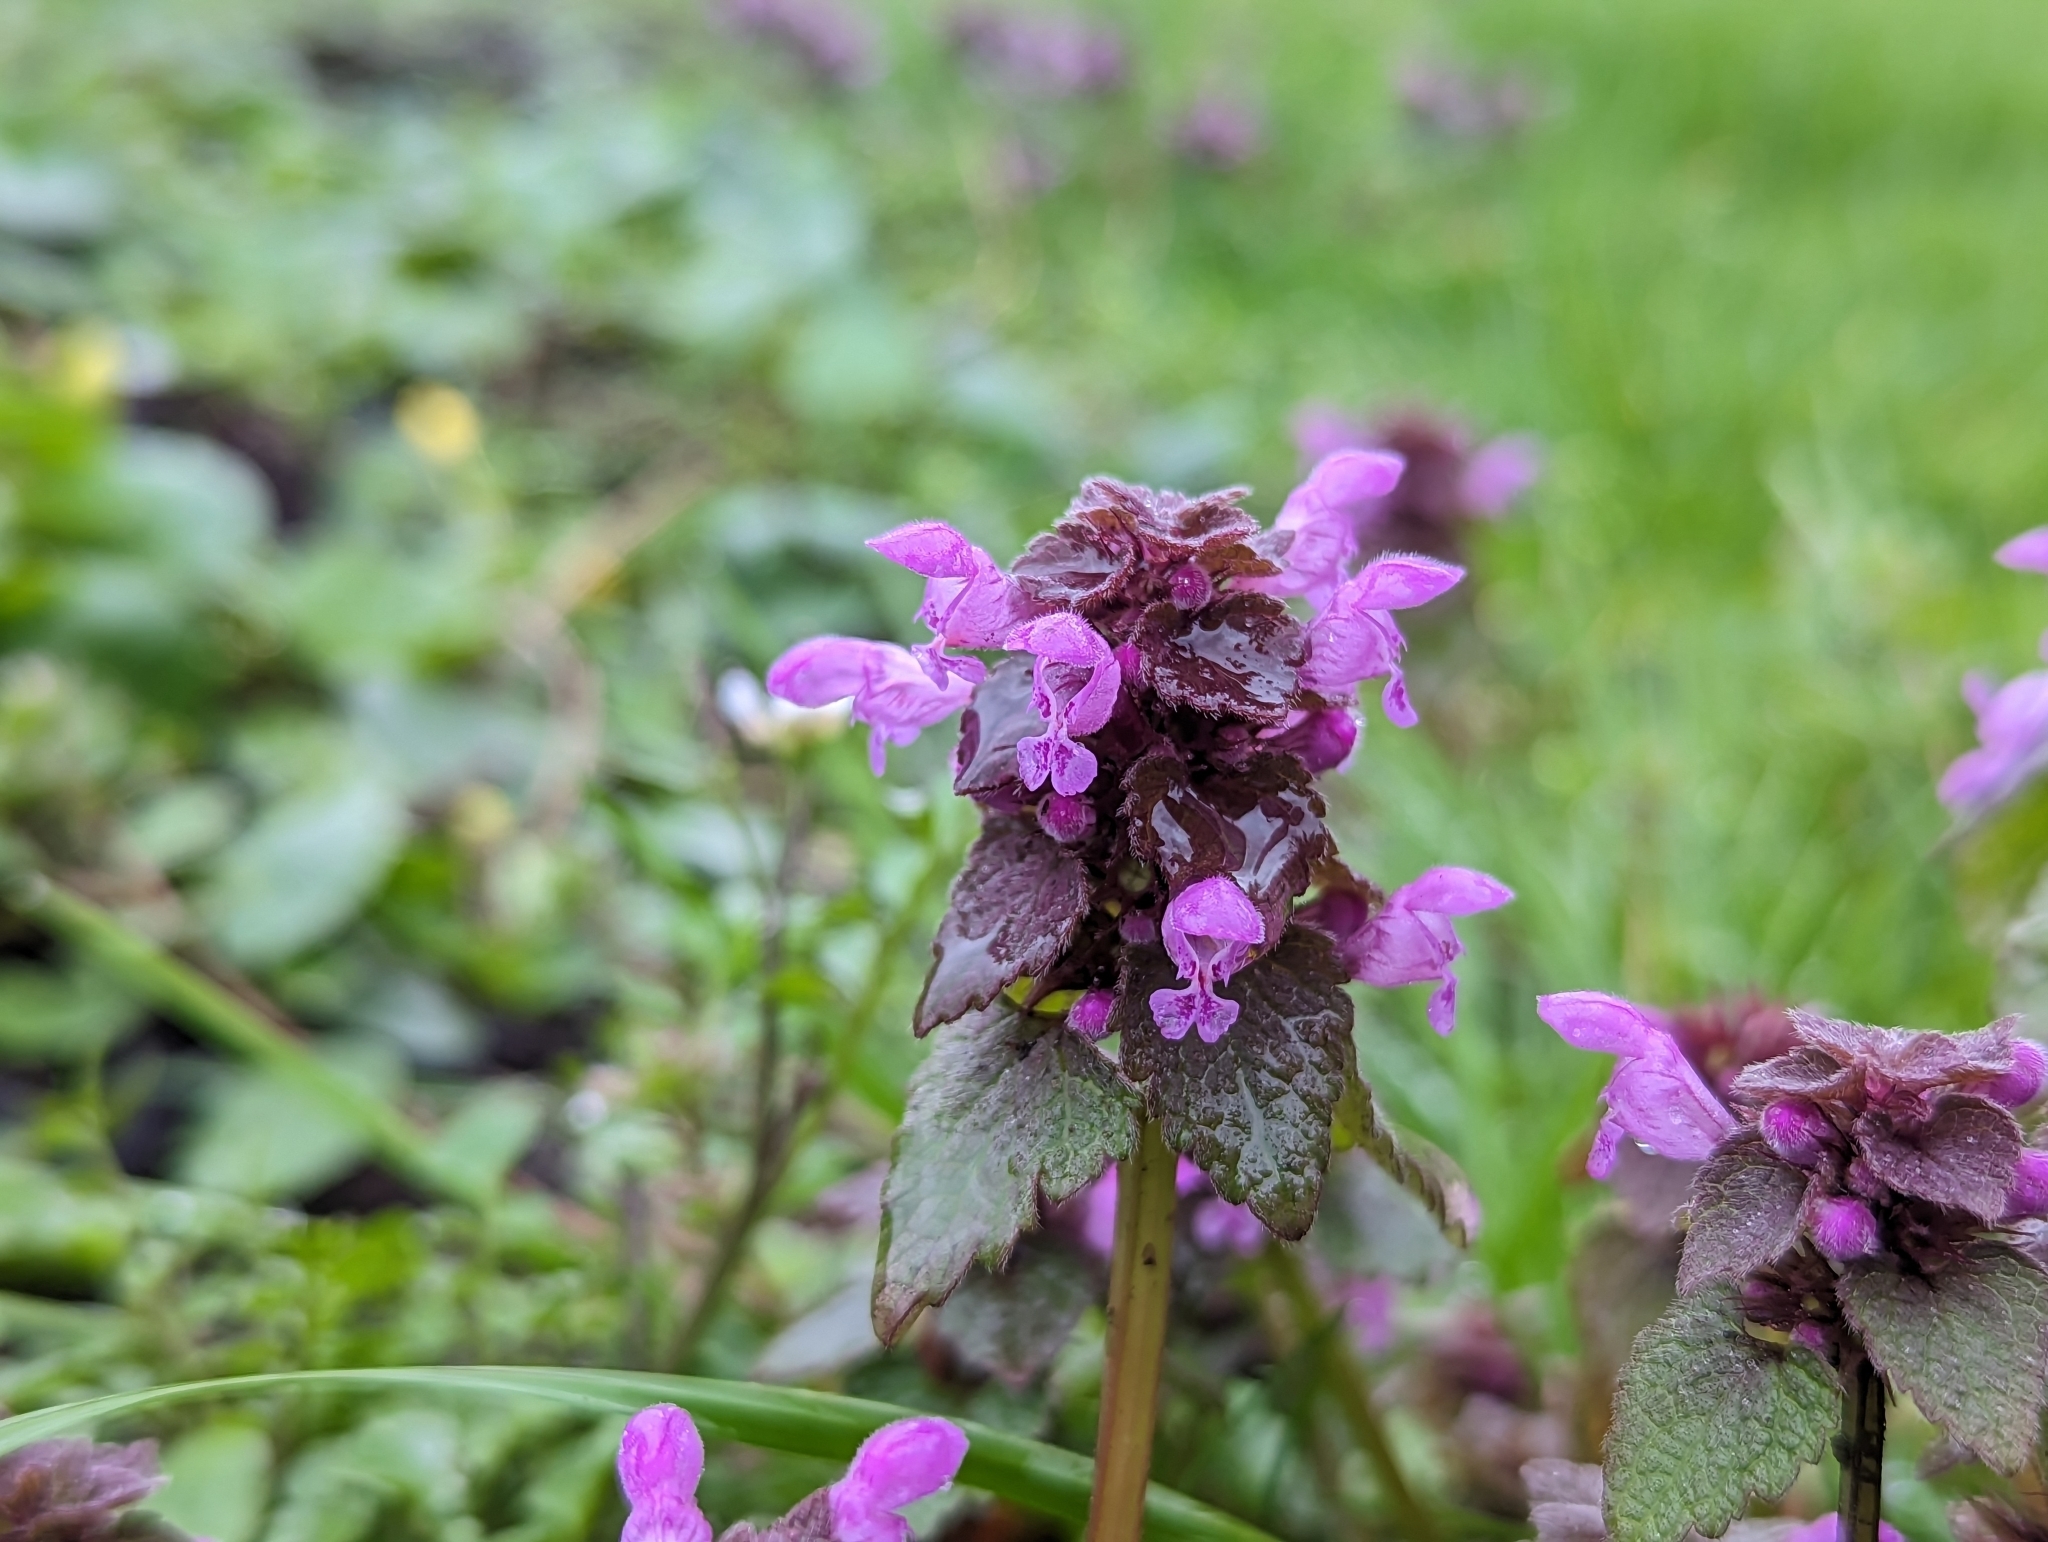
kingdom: Plantae
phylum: Tracheophyta
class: Magnoliopsida
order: Lamiales
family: Lamiaceae
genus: Lamium
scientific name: Lamium purpureum
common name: Red dead-nettle
